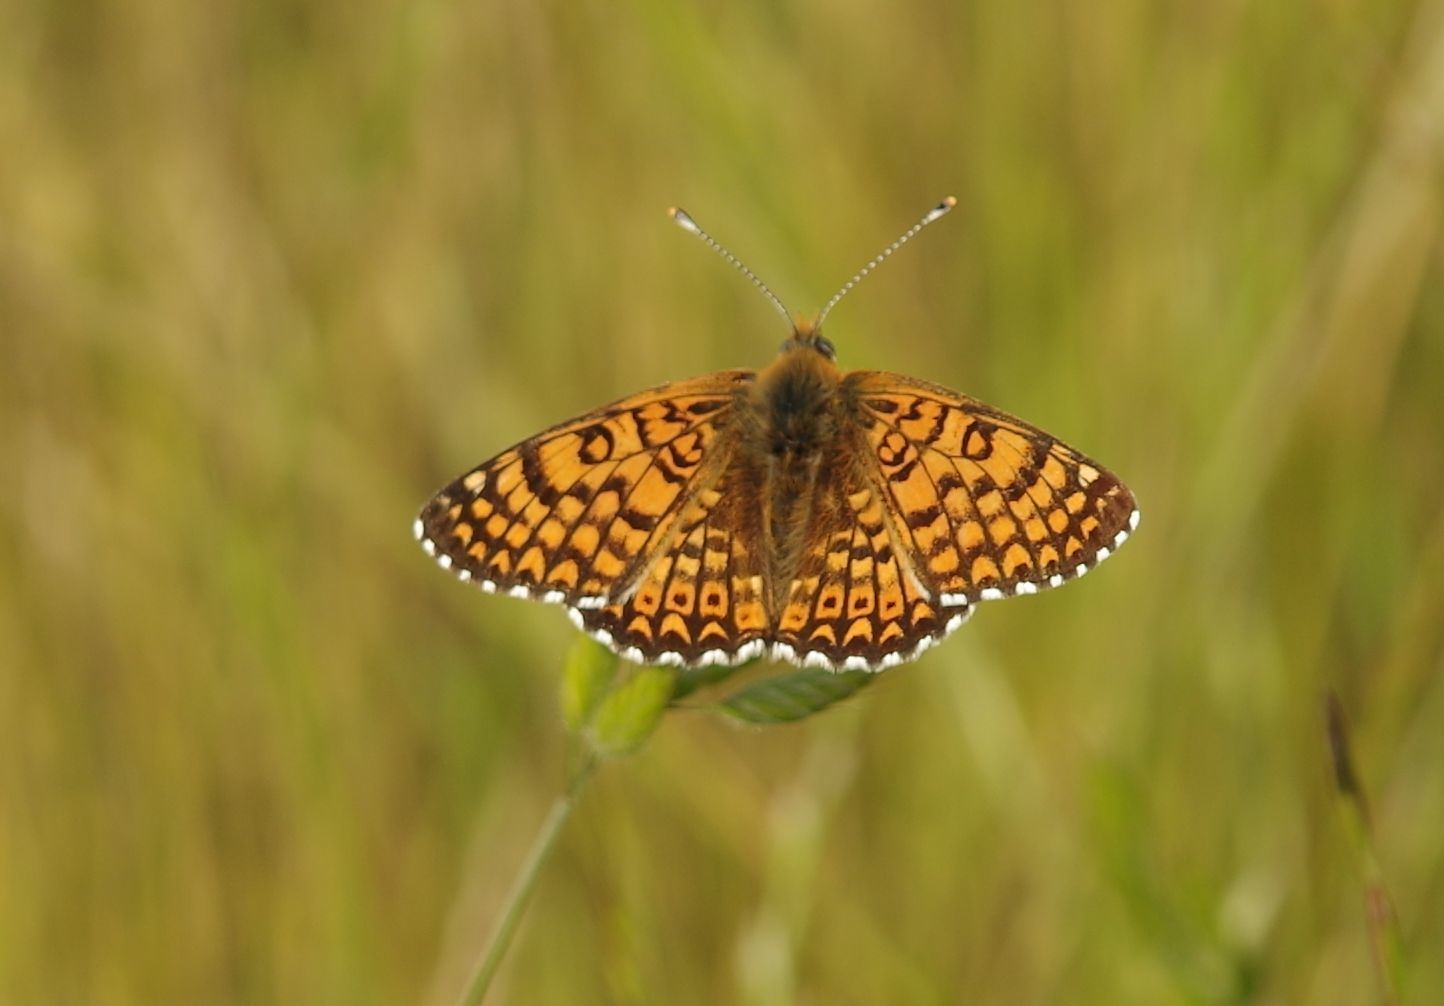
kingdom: Animalia
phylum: Arthropoda
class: Insecta
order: Lepidoptera
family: Nymphalidae
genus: Melitaea
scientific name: Melitaea cinxia
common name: Glanville fritillary
